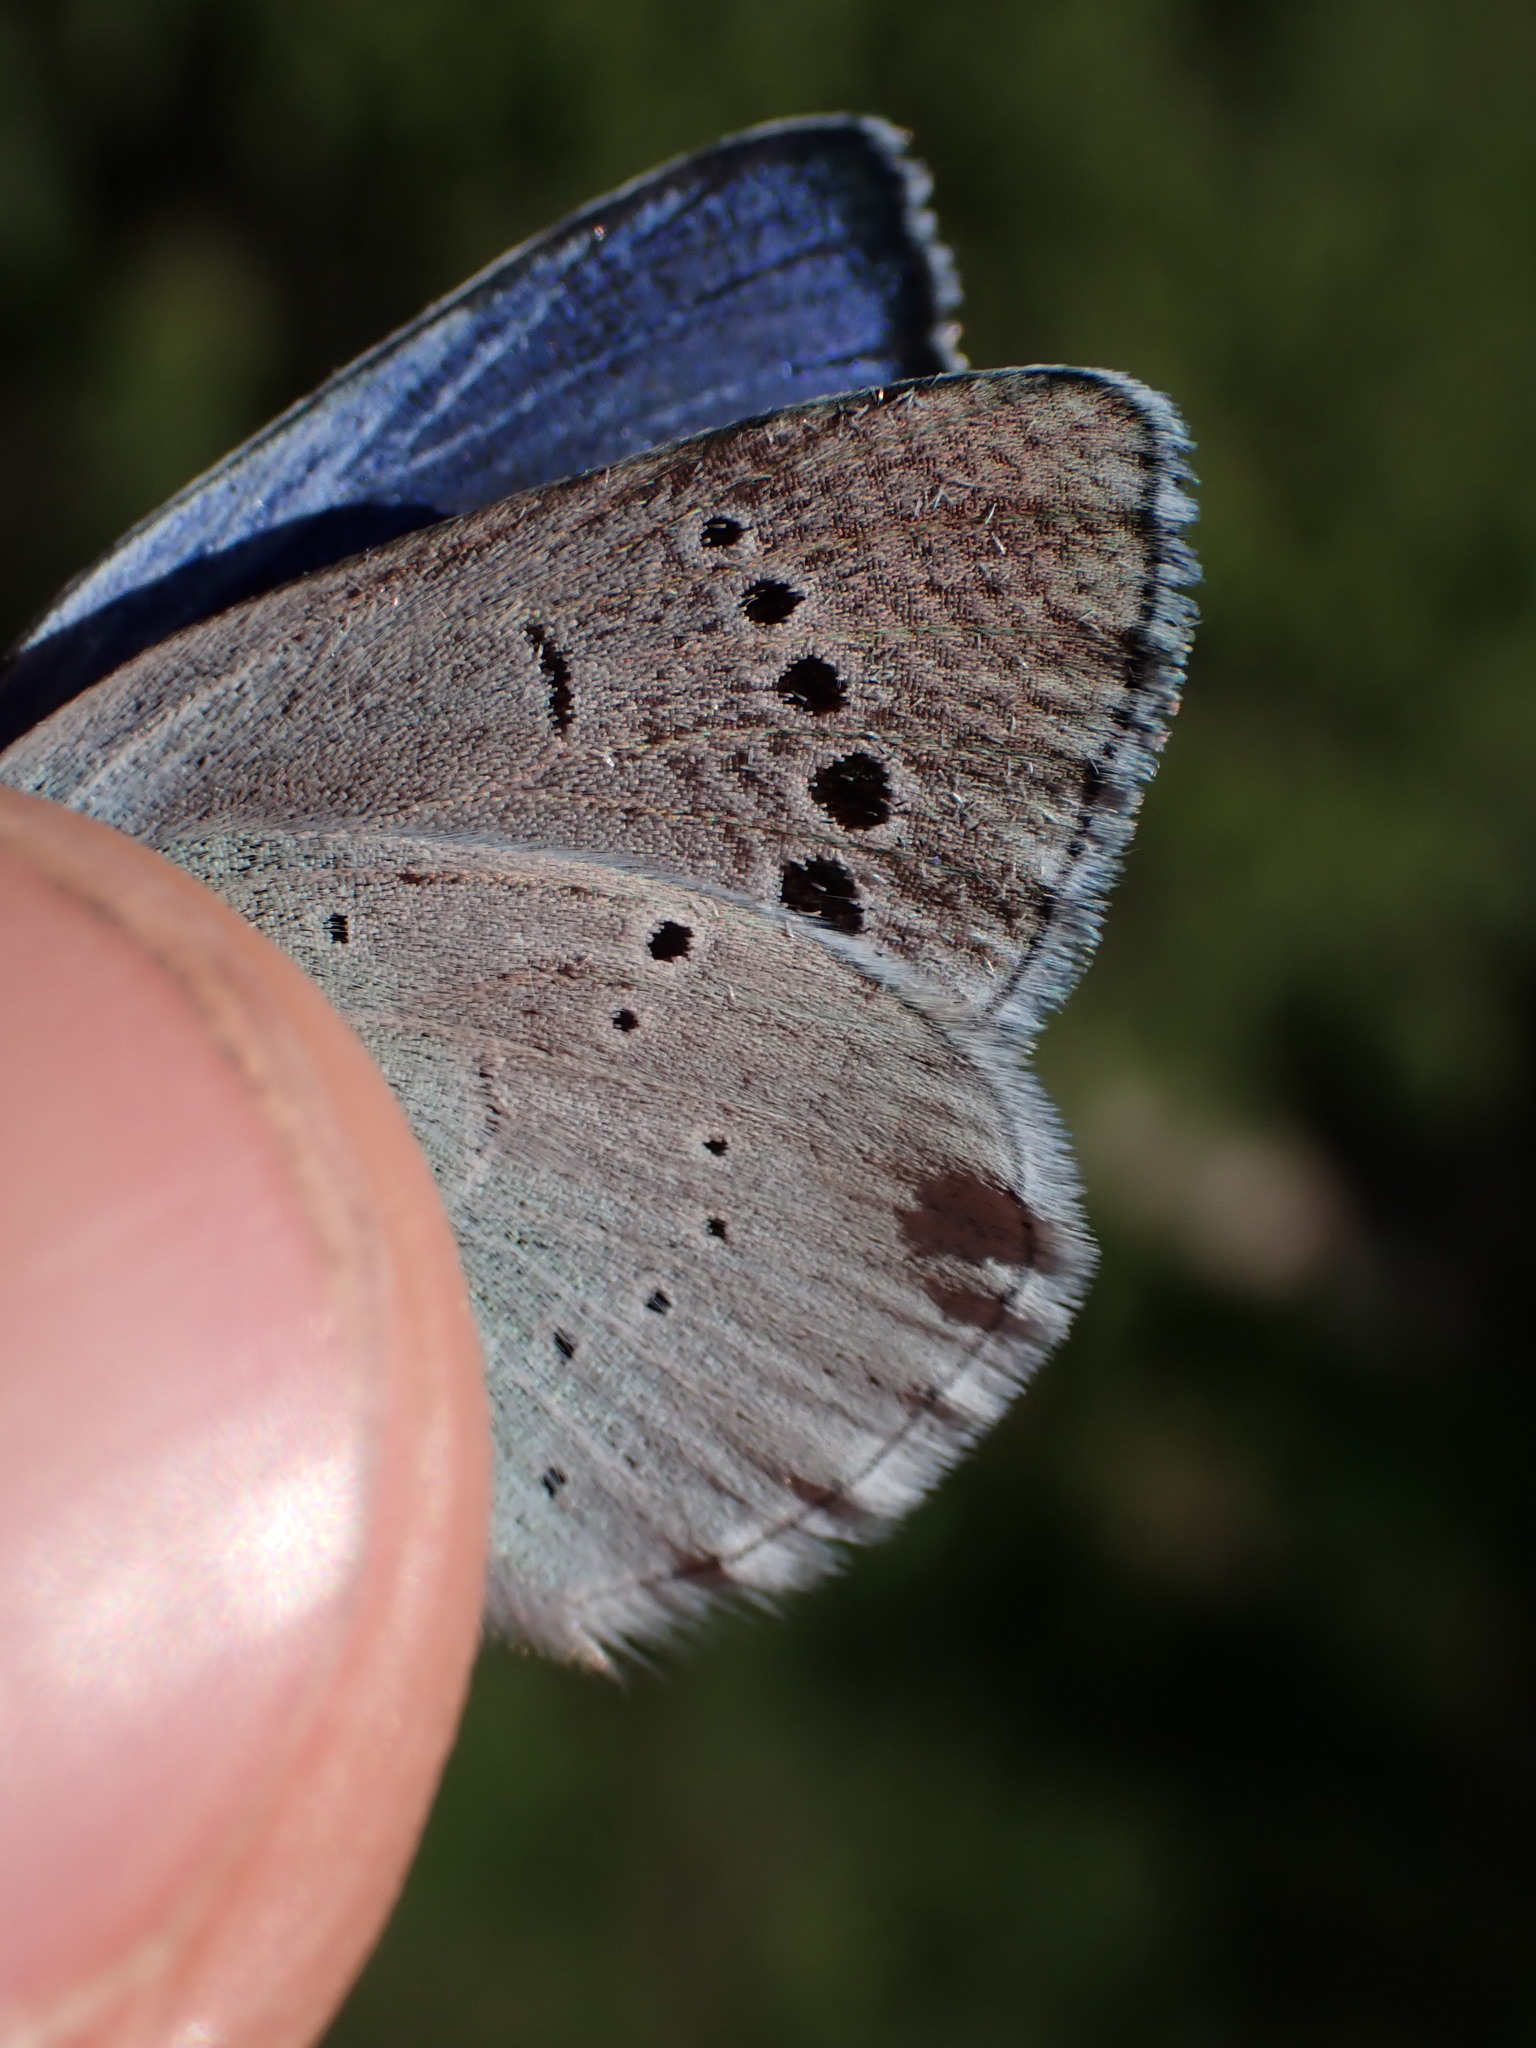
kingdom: Animalia
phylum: Arthropoda
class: Insecta
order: Lepidoptera
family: Lycaenidae
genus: Glaucopsyche
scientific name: Glaucopsyche alexis
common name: Green-underside blue
